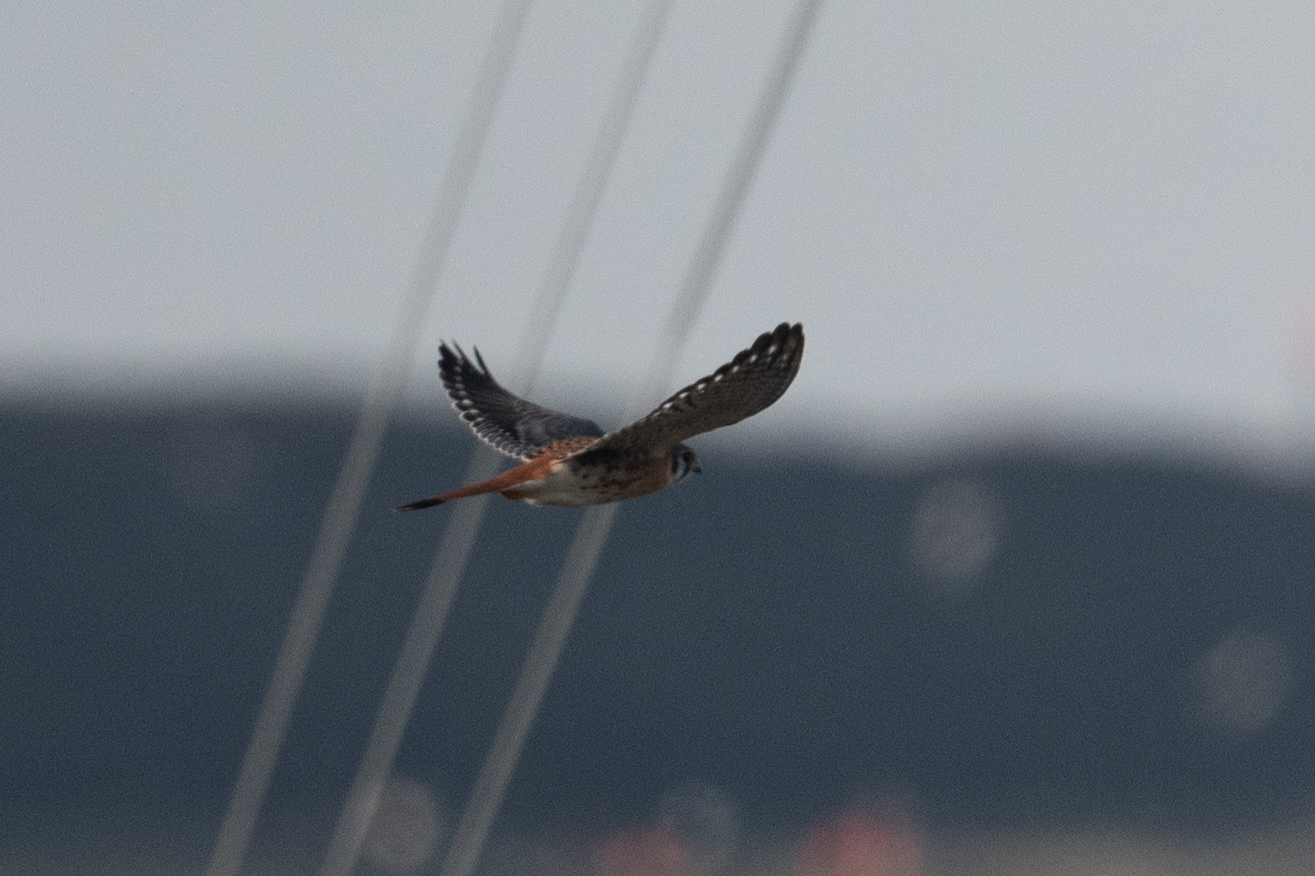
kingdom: Animalia
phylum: Chordata
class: Aves
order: Falconiformes
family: Falconidae
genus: Falco
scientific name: Falco sparverius
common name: American kestrel
